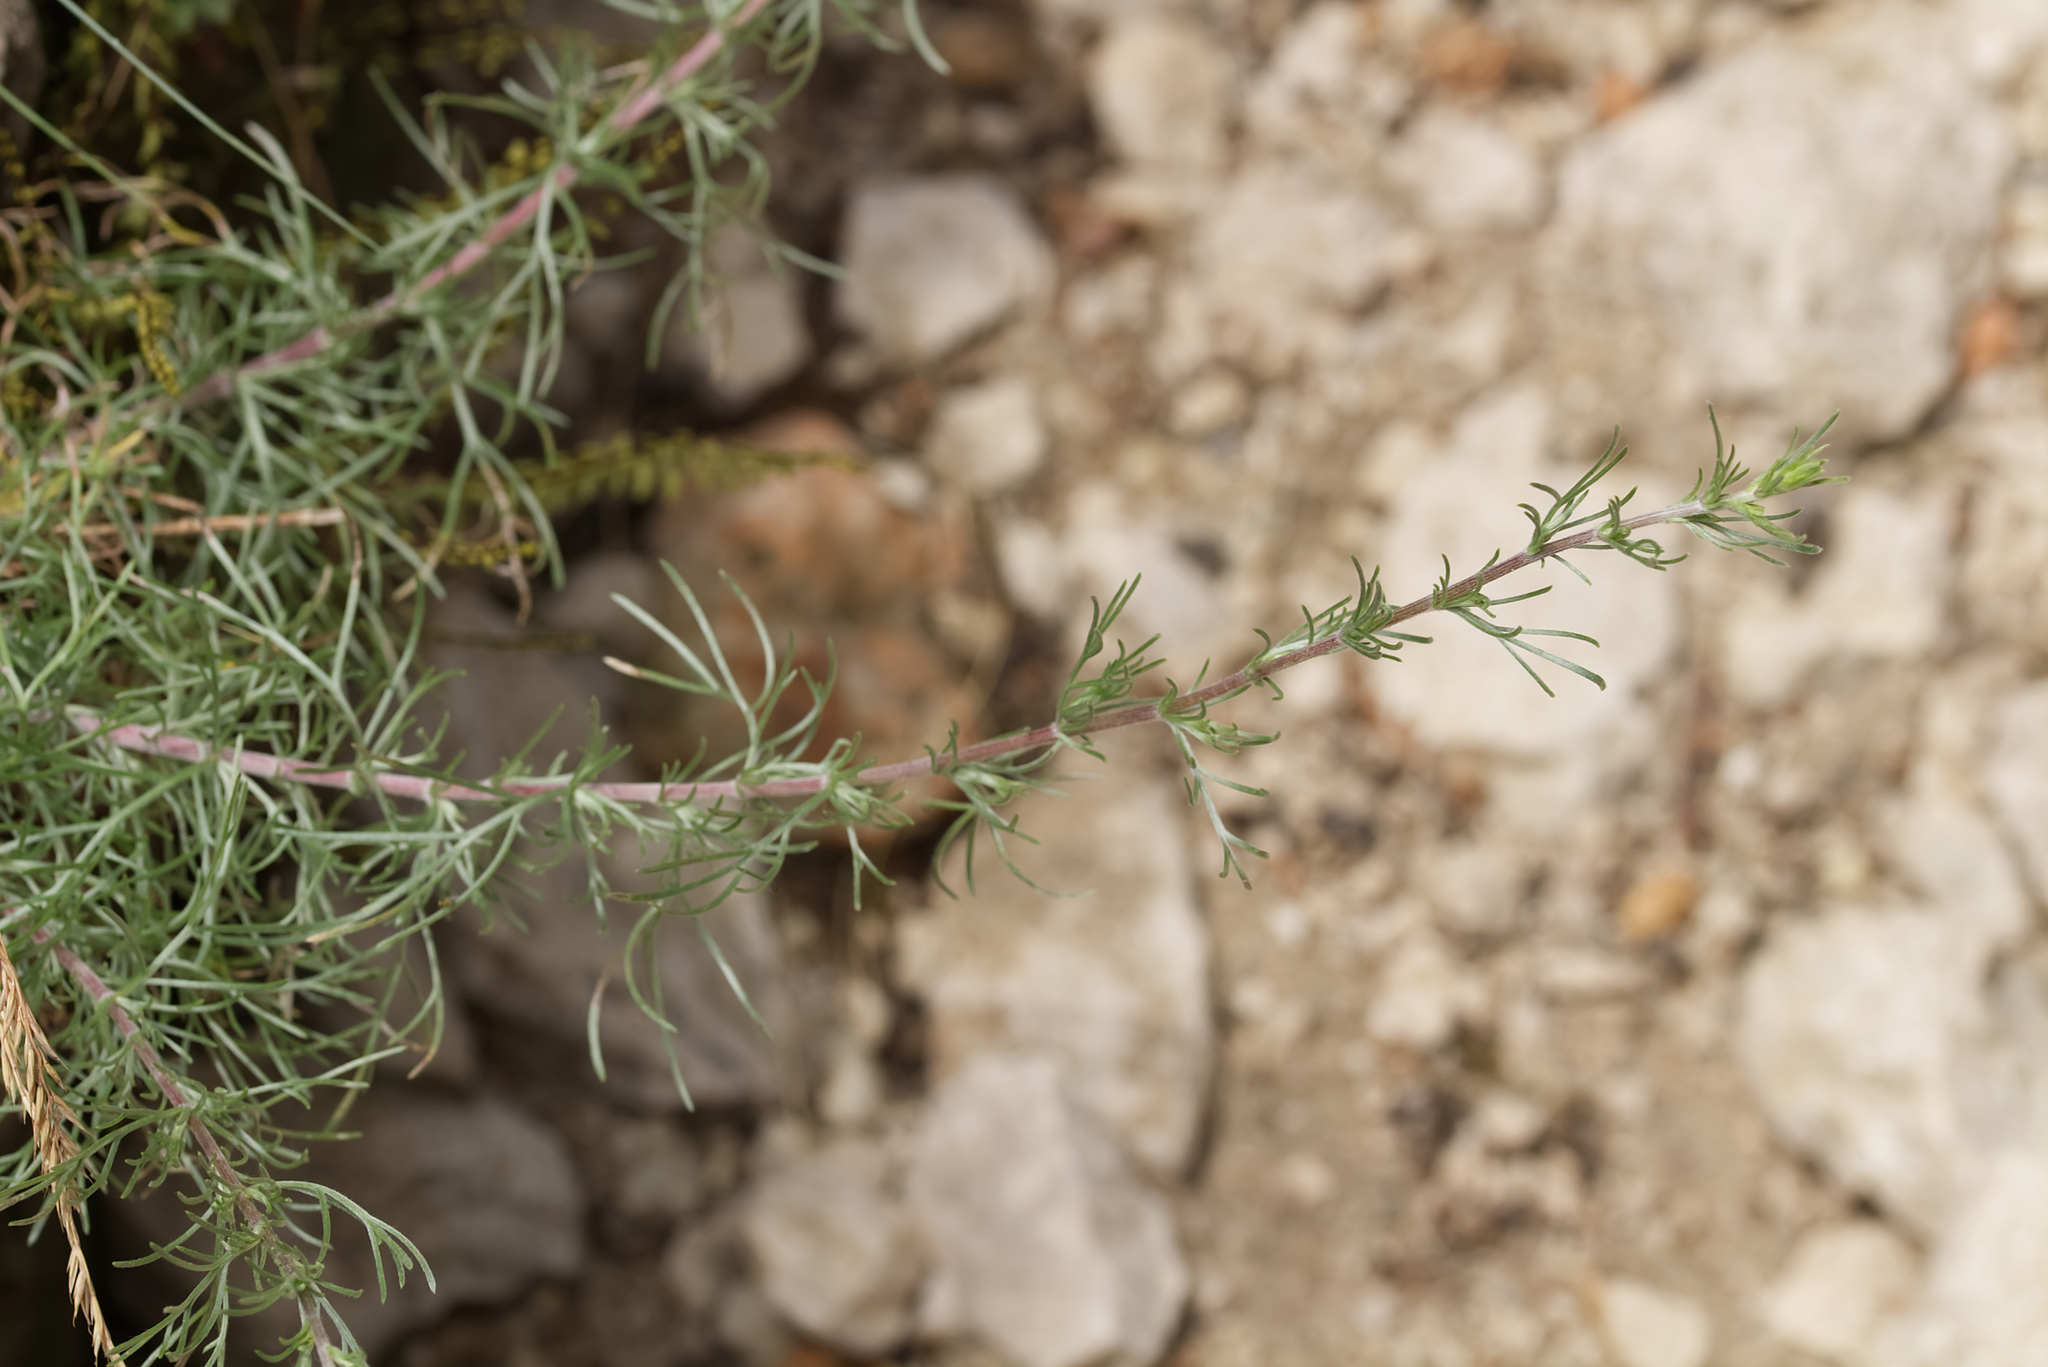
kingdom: Plantae
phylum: Tracheophyta
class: Magnoliopsida
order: Asterales
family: Asteraceae
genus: Artemisia
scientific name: Artemisia campestris
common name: Field wormwood
